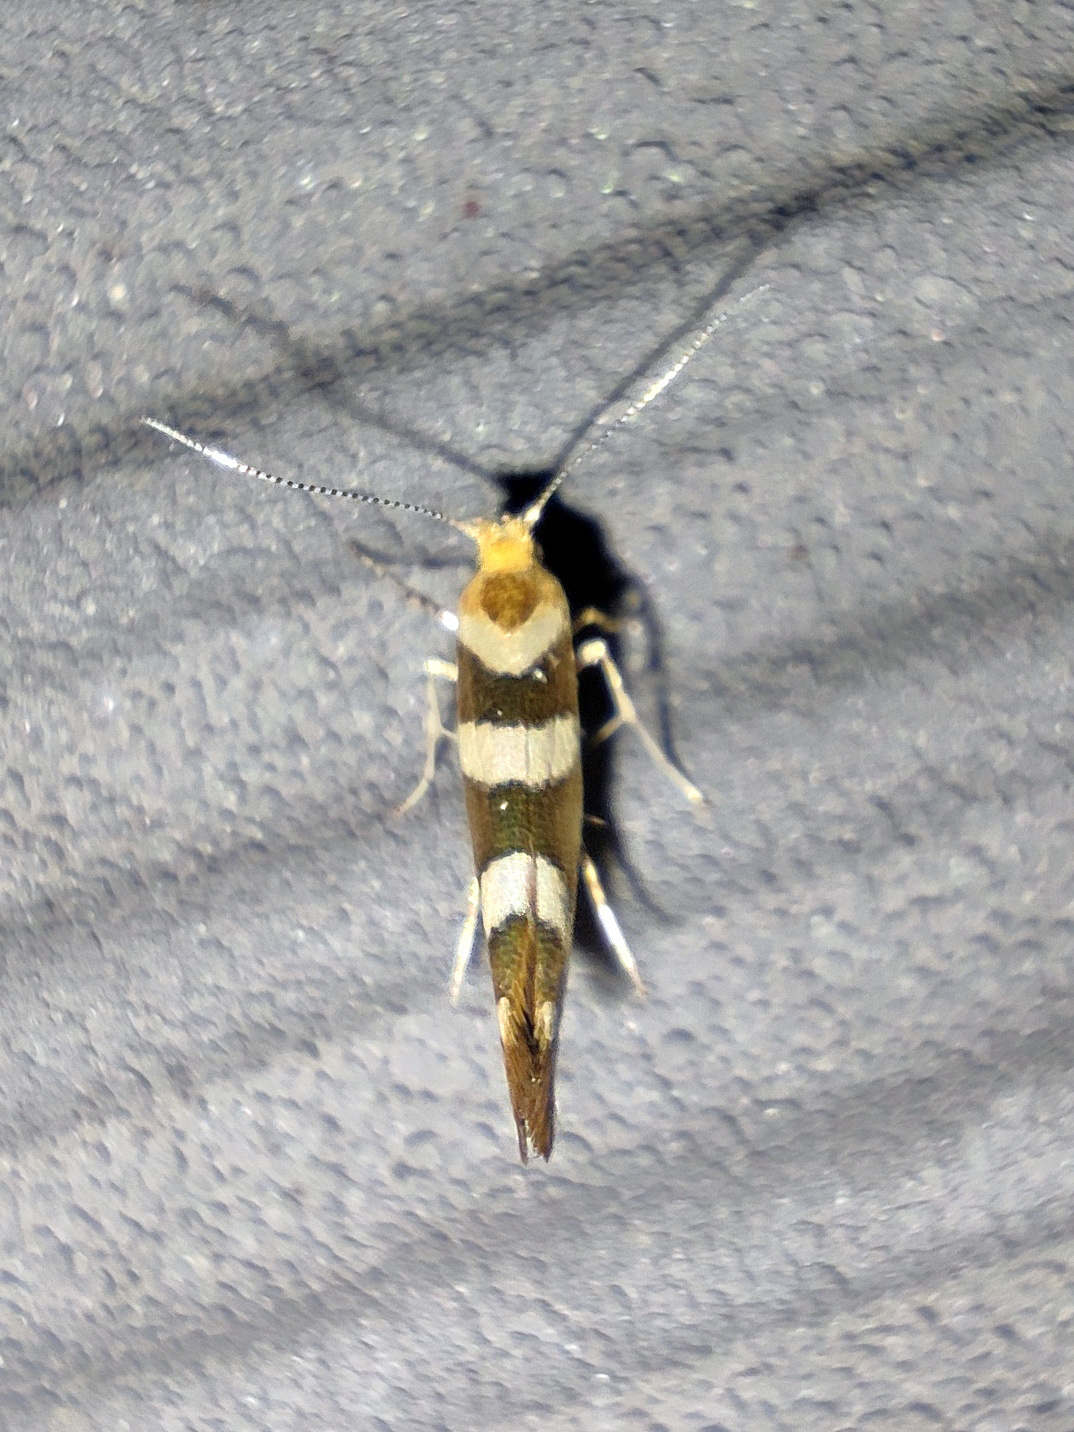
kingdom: Animalia
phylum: Arthropoda
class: Insecta
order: Lepidoptera
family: Argyresthiidae
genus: Argyresthia
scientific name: Argyresthia goedartella
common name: Golden argent
